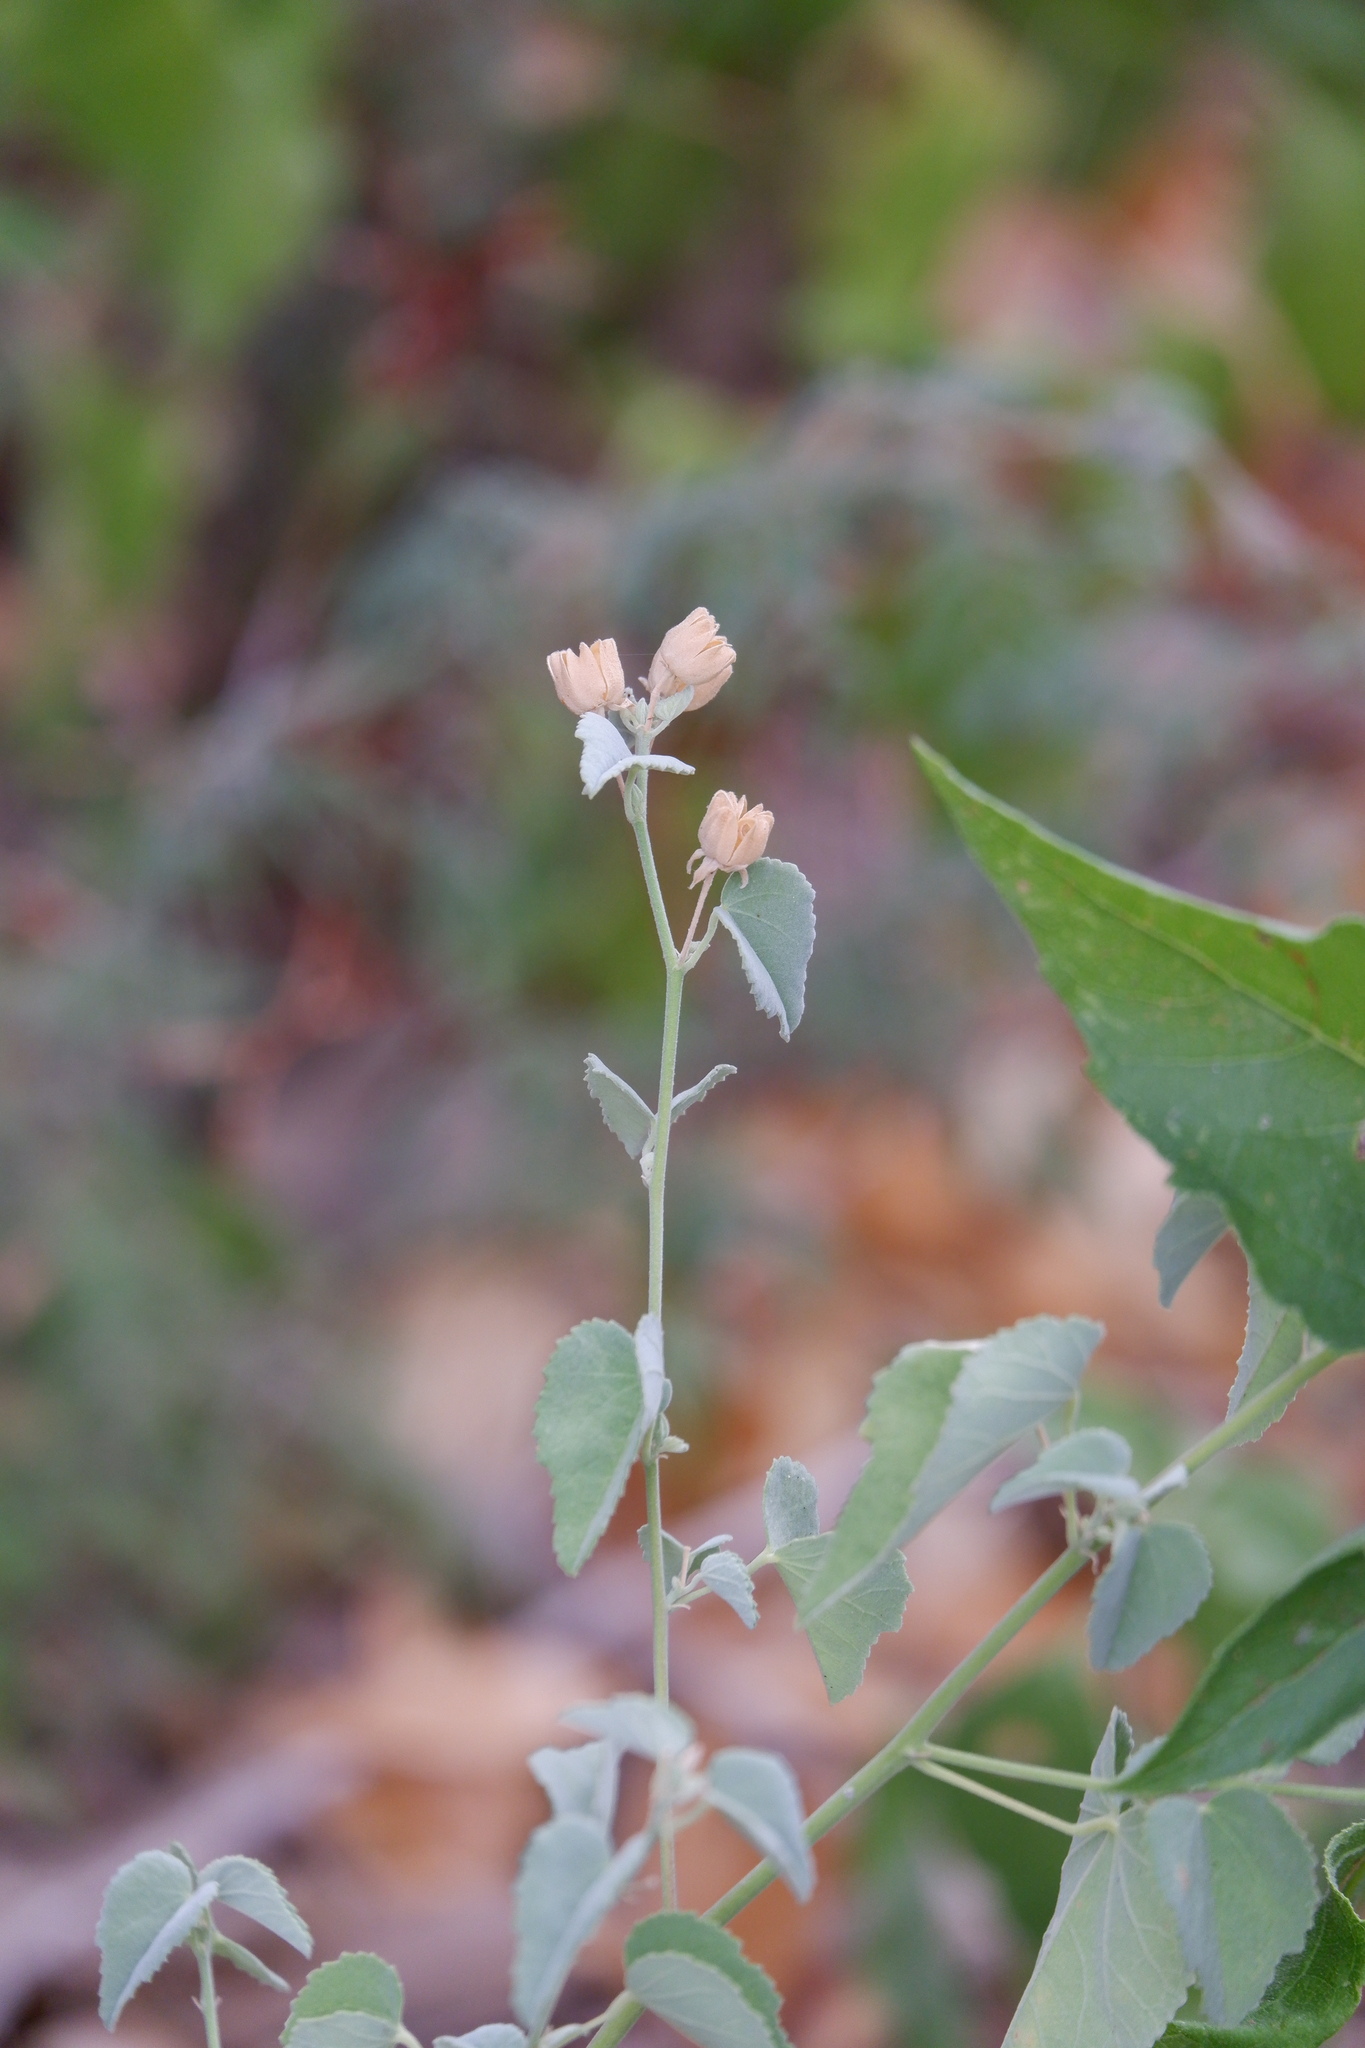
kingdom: Plantae
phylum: Tracheophyta
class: Magnoliopsida
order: Malvales
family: Malvaceae
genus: Abutilon
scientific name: Abutilon fruticosum
